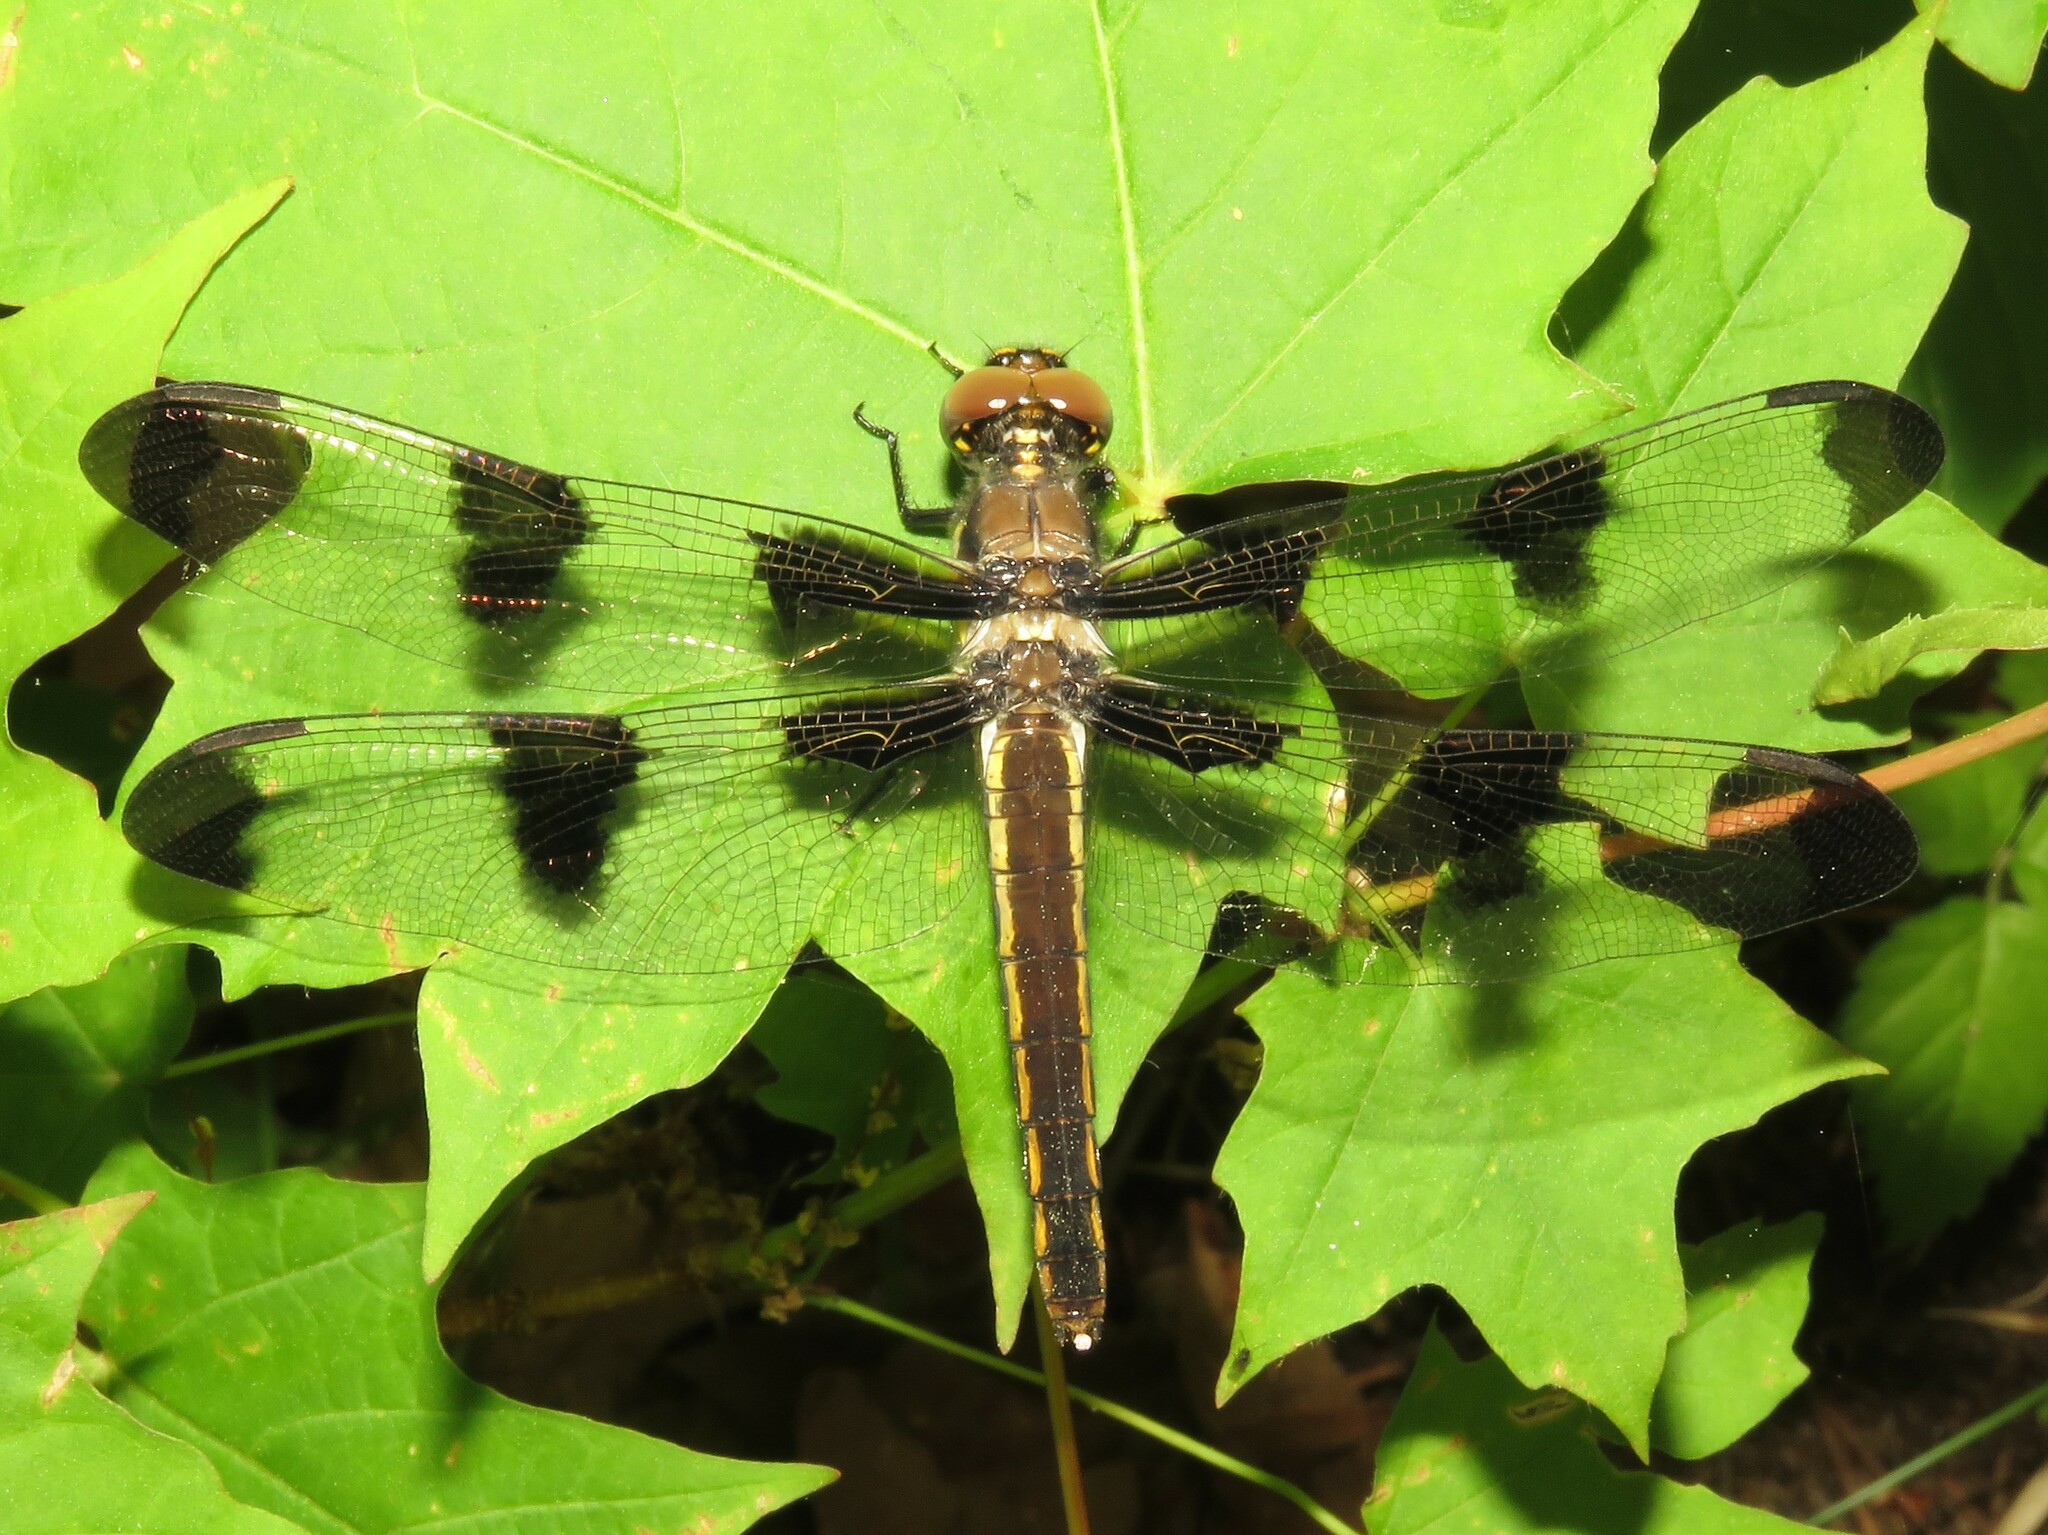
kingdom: Animalia
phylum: Arthropoda
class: Insecta
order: Odonata
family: Libellulidae
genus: Libellula
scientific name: Libellula pulchella
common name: Twelve-spotted skimmer
